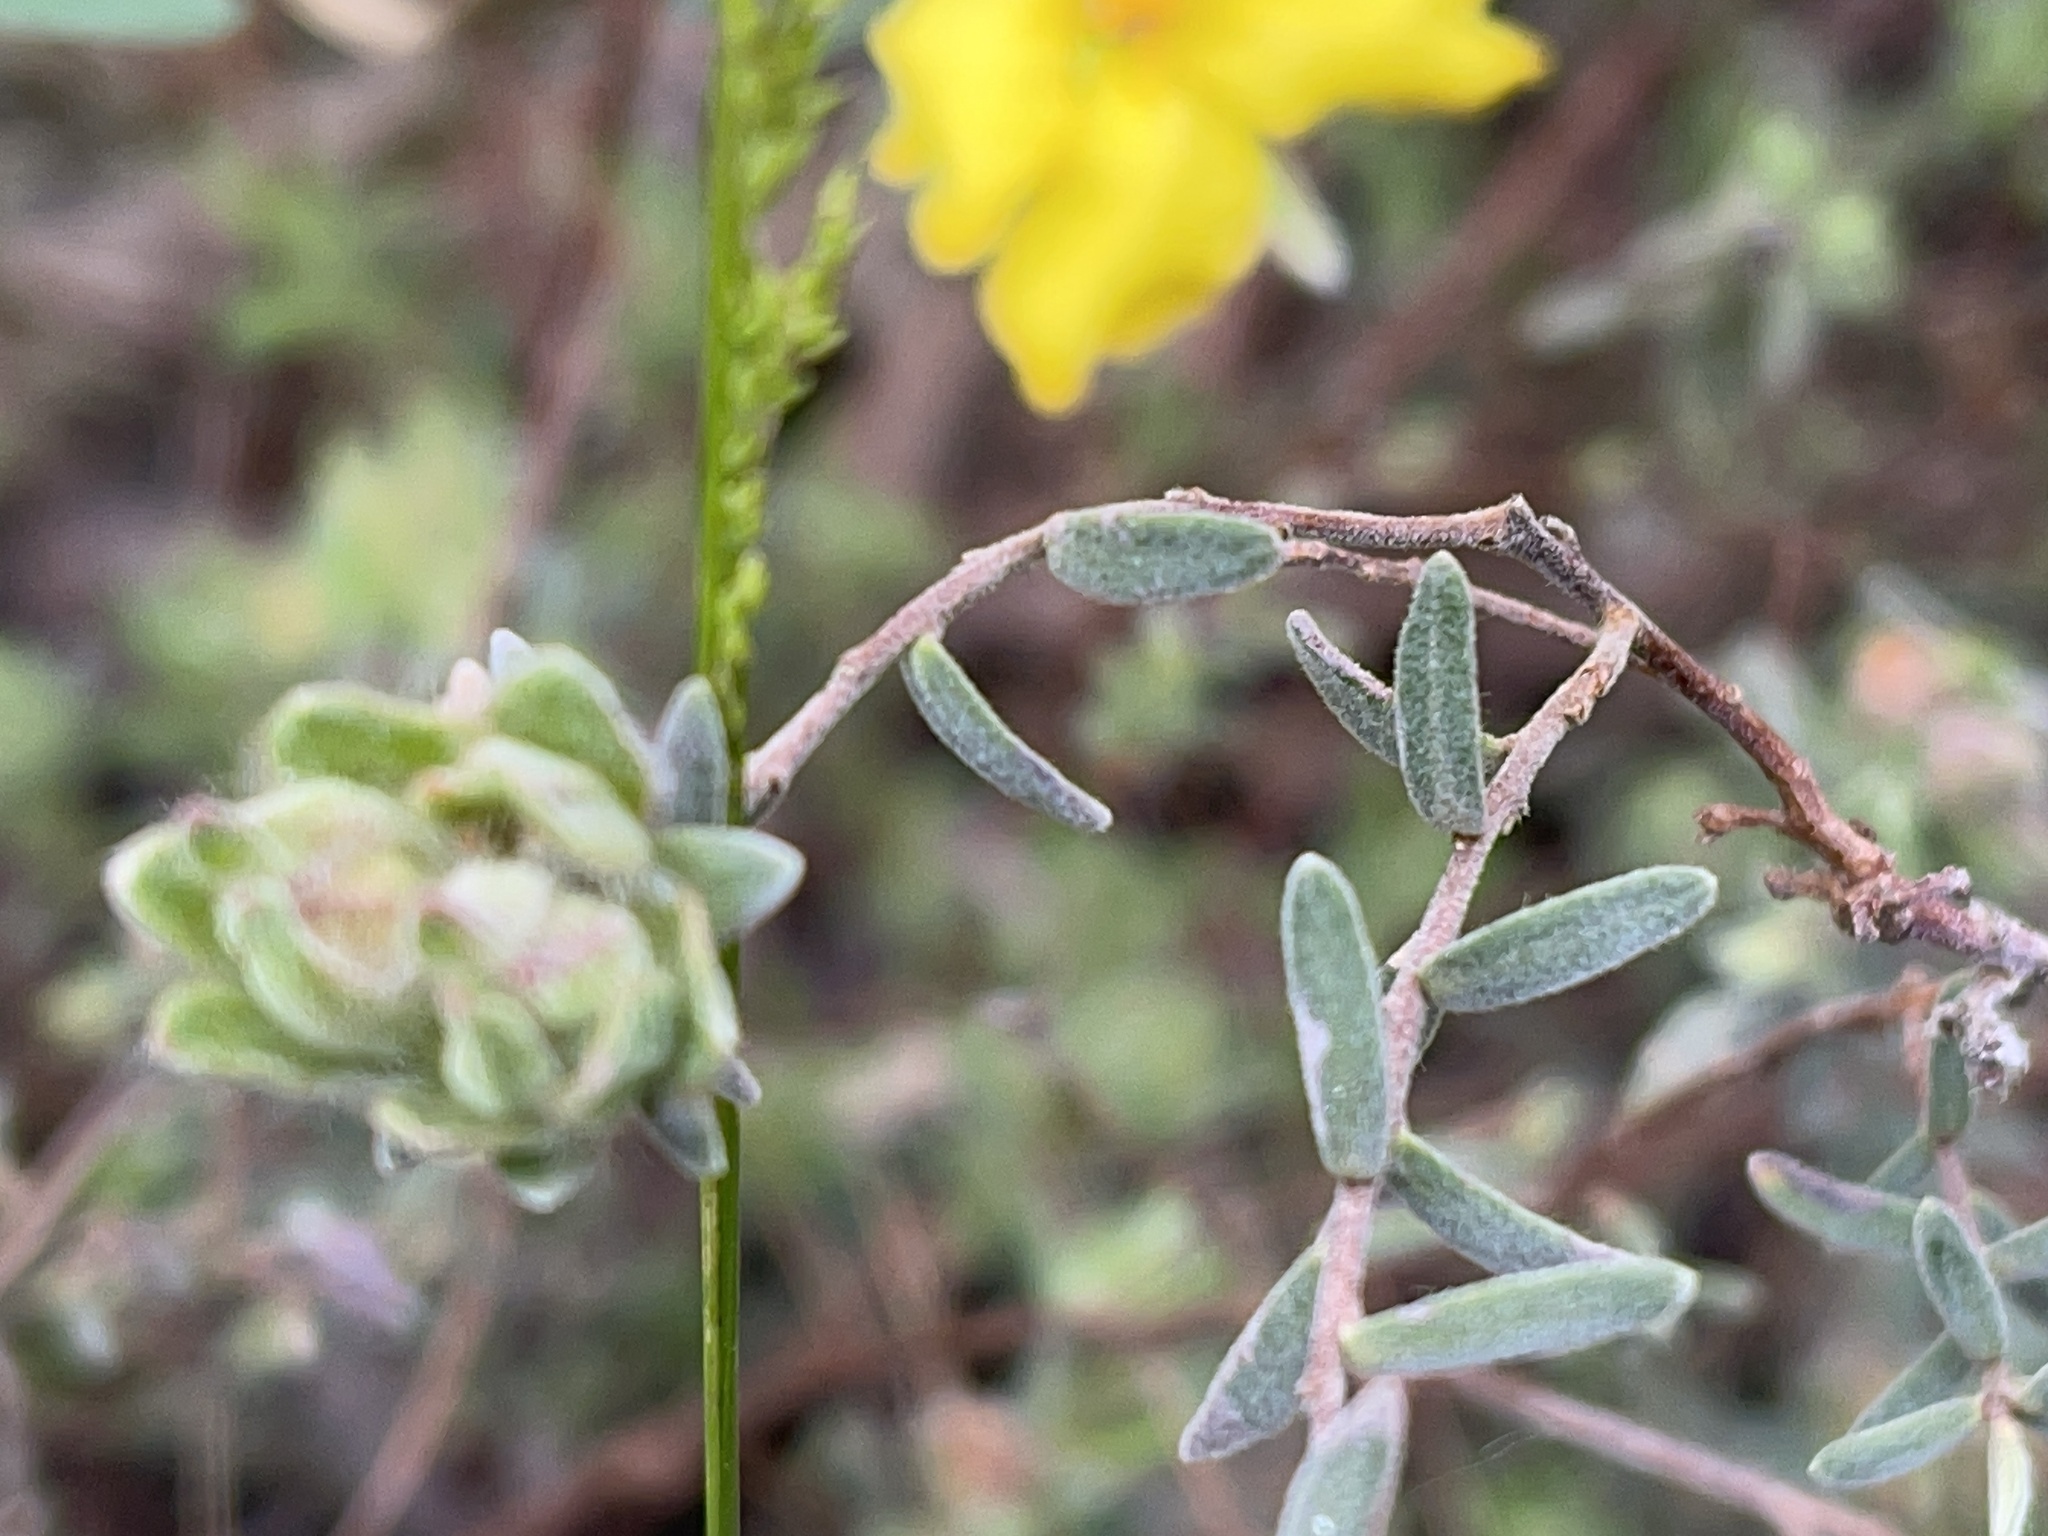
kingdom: Plantae
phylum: Tracheophyta
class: Magnoliopsida
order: Dilleniales
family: Dilleniaceae
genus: Hibbertia
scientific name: Hibbertia crinita
